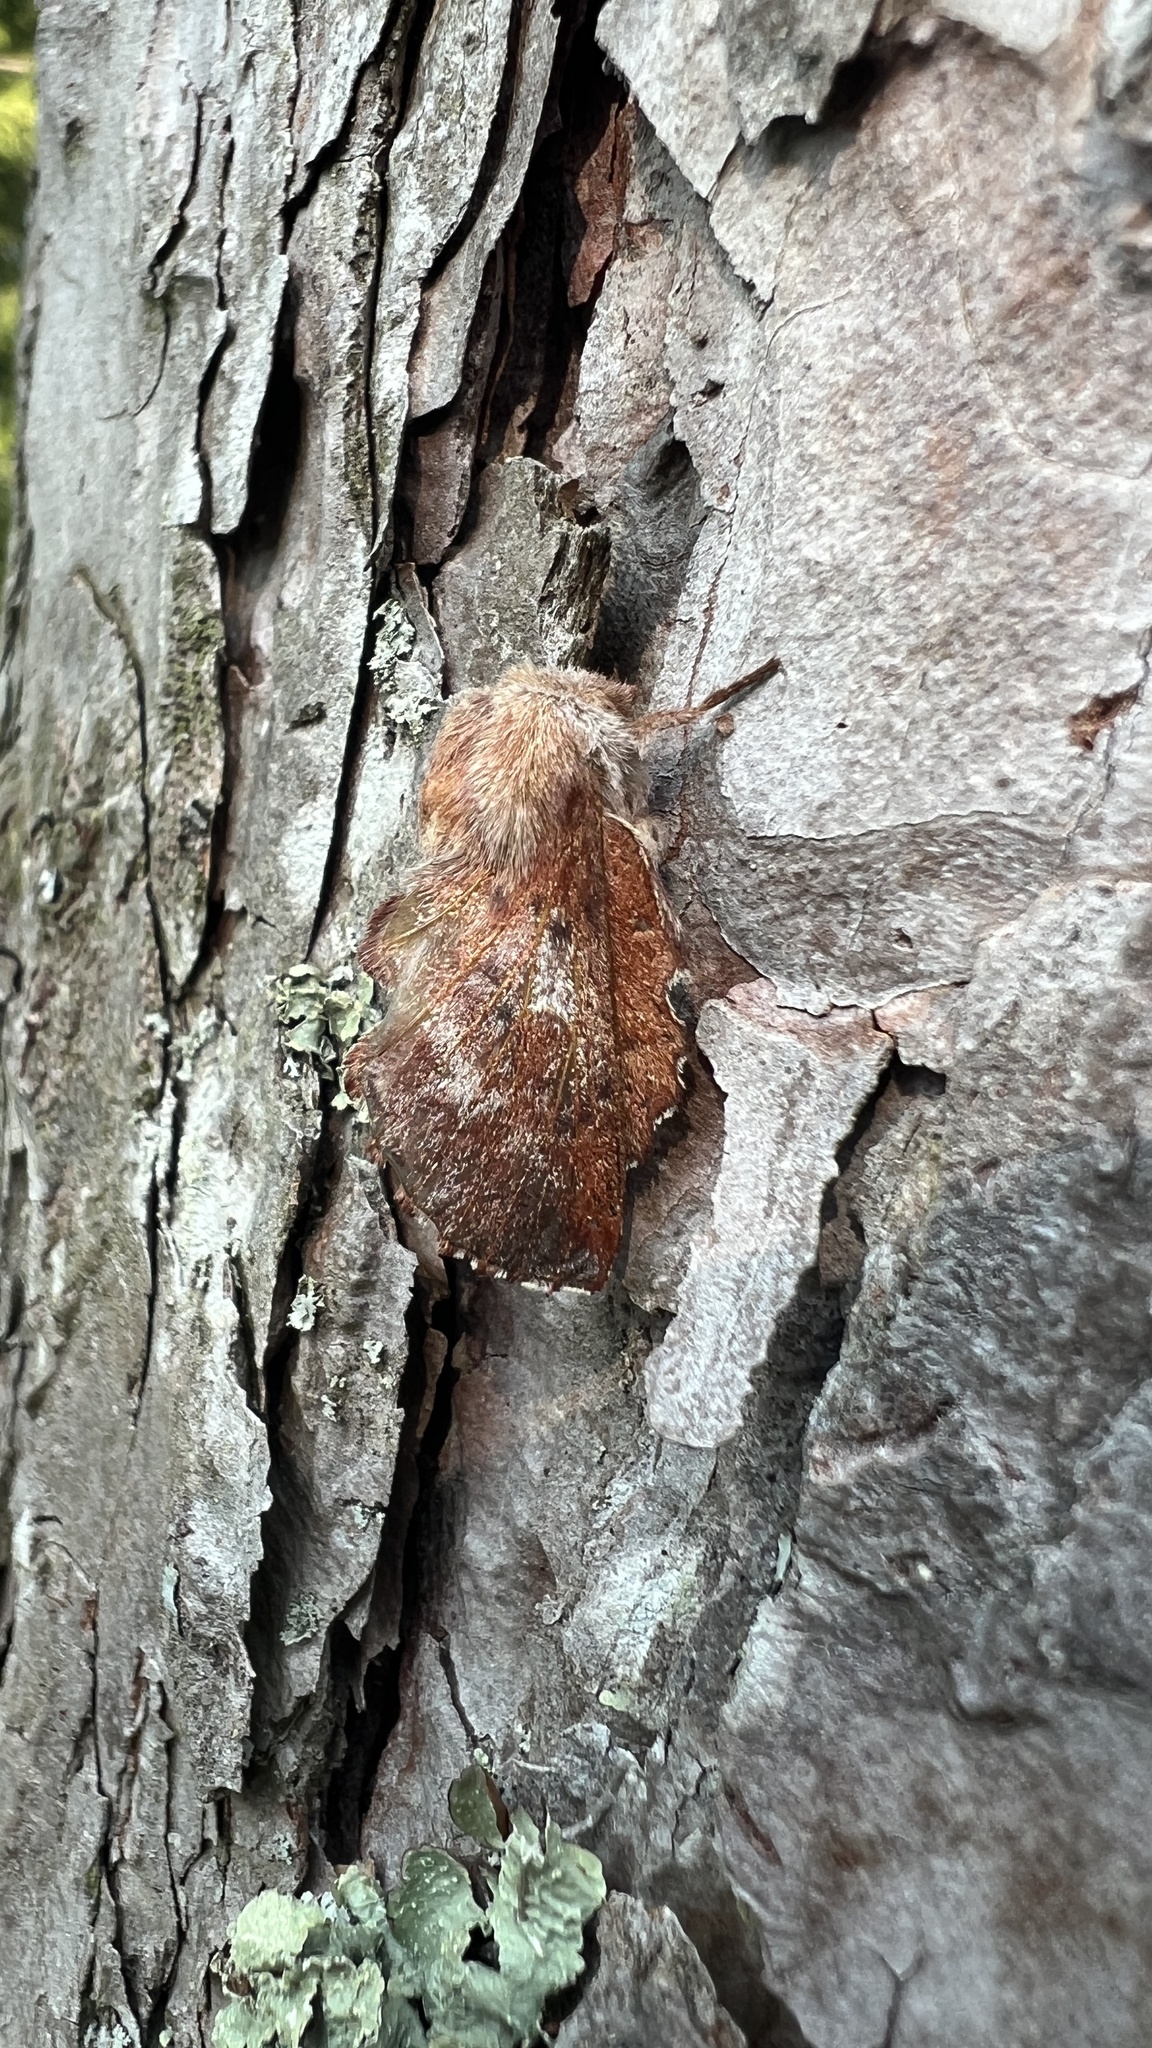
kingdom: Animalia
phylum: Arthropoda
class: Insecta
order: Lepidoptera
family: Lasiocampidae
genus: Phyllodesma
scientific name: Phyllodesma americana
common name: American lappet moth
